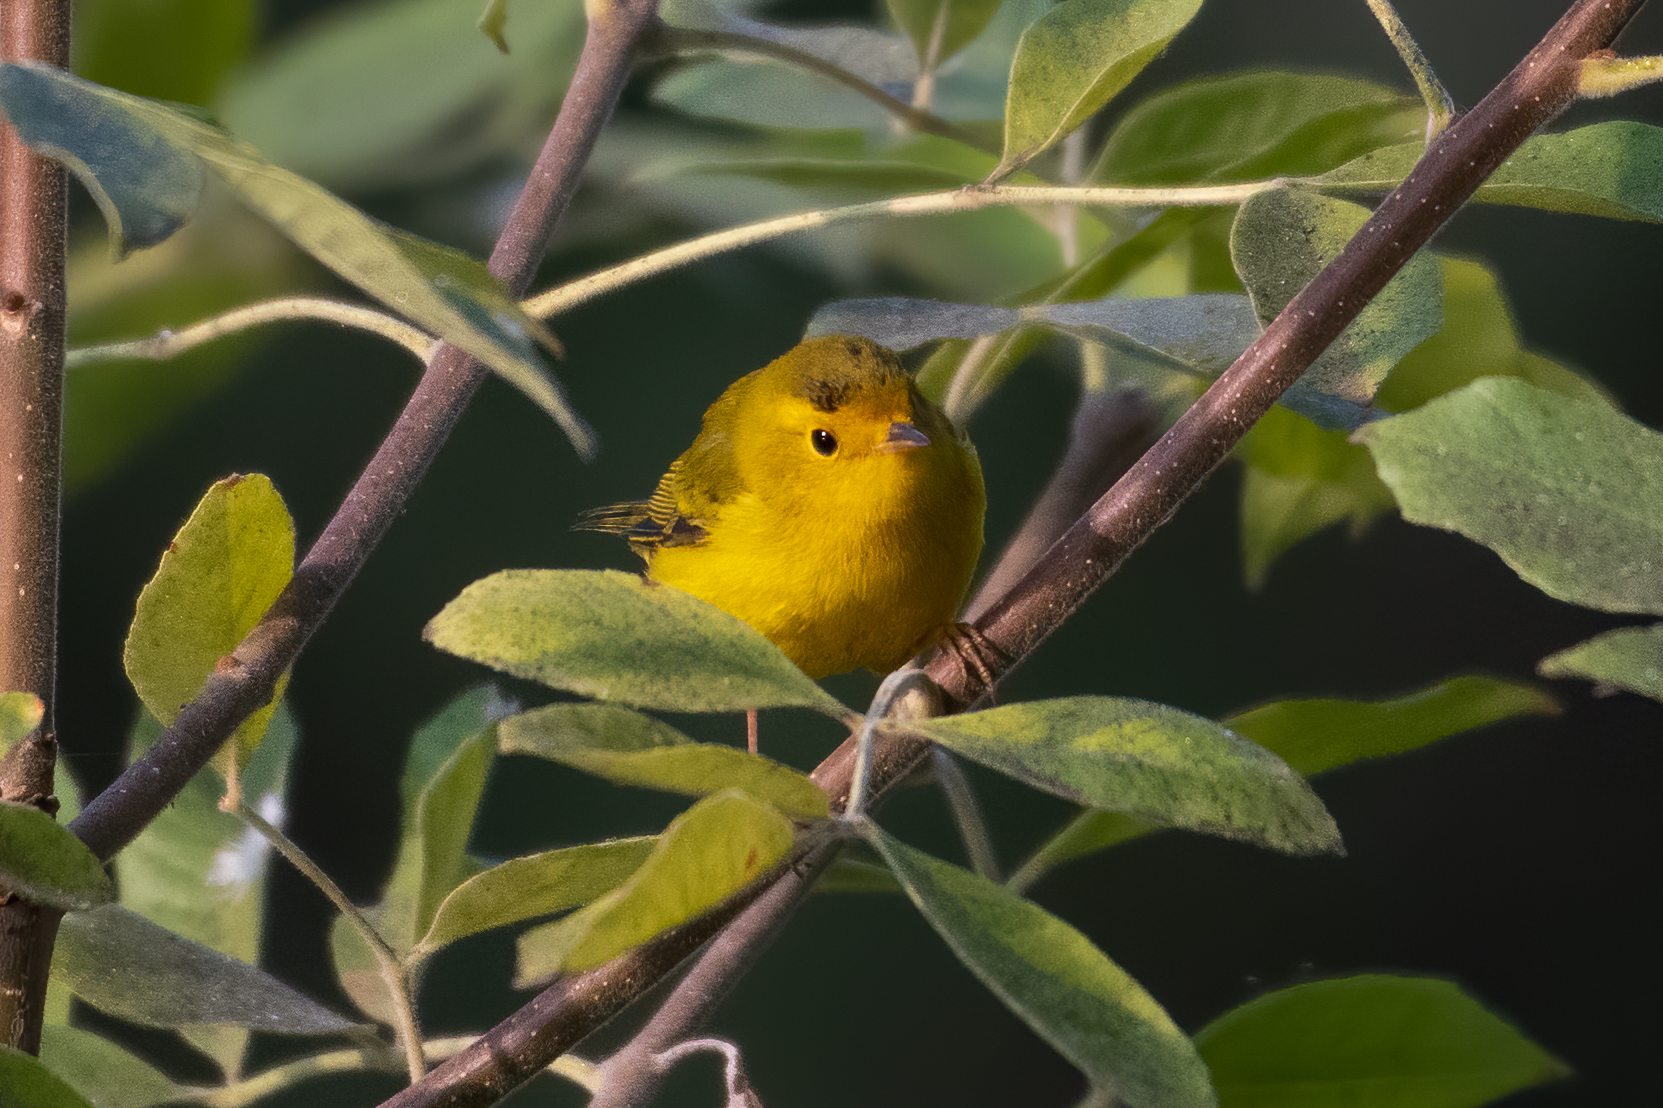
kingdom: Animalia
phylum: Chordata
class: Aves
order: Passeriformes
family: Parulidae
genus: Cardellina
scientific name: Cardellina pusilla
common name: Wilson's warbler
